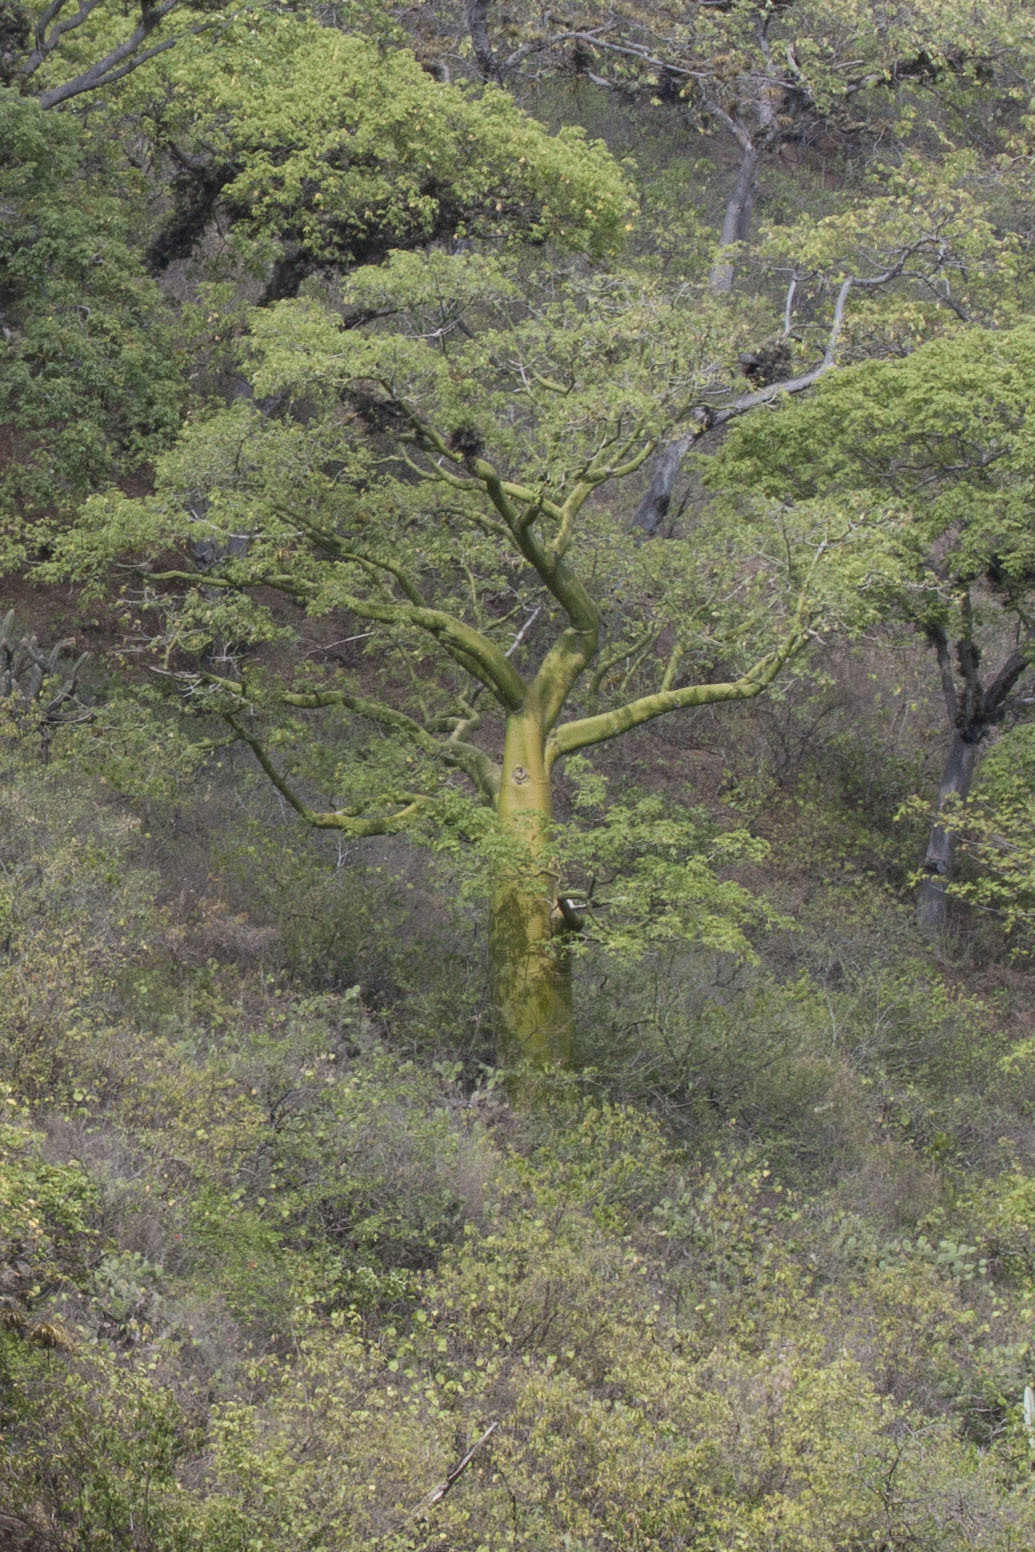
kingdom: Plantae
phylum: Tracheophyta
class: Magnoliopsida
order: Malvales
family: Malvaceae
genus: Ceiba
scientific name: Ceiba trischistandra
